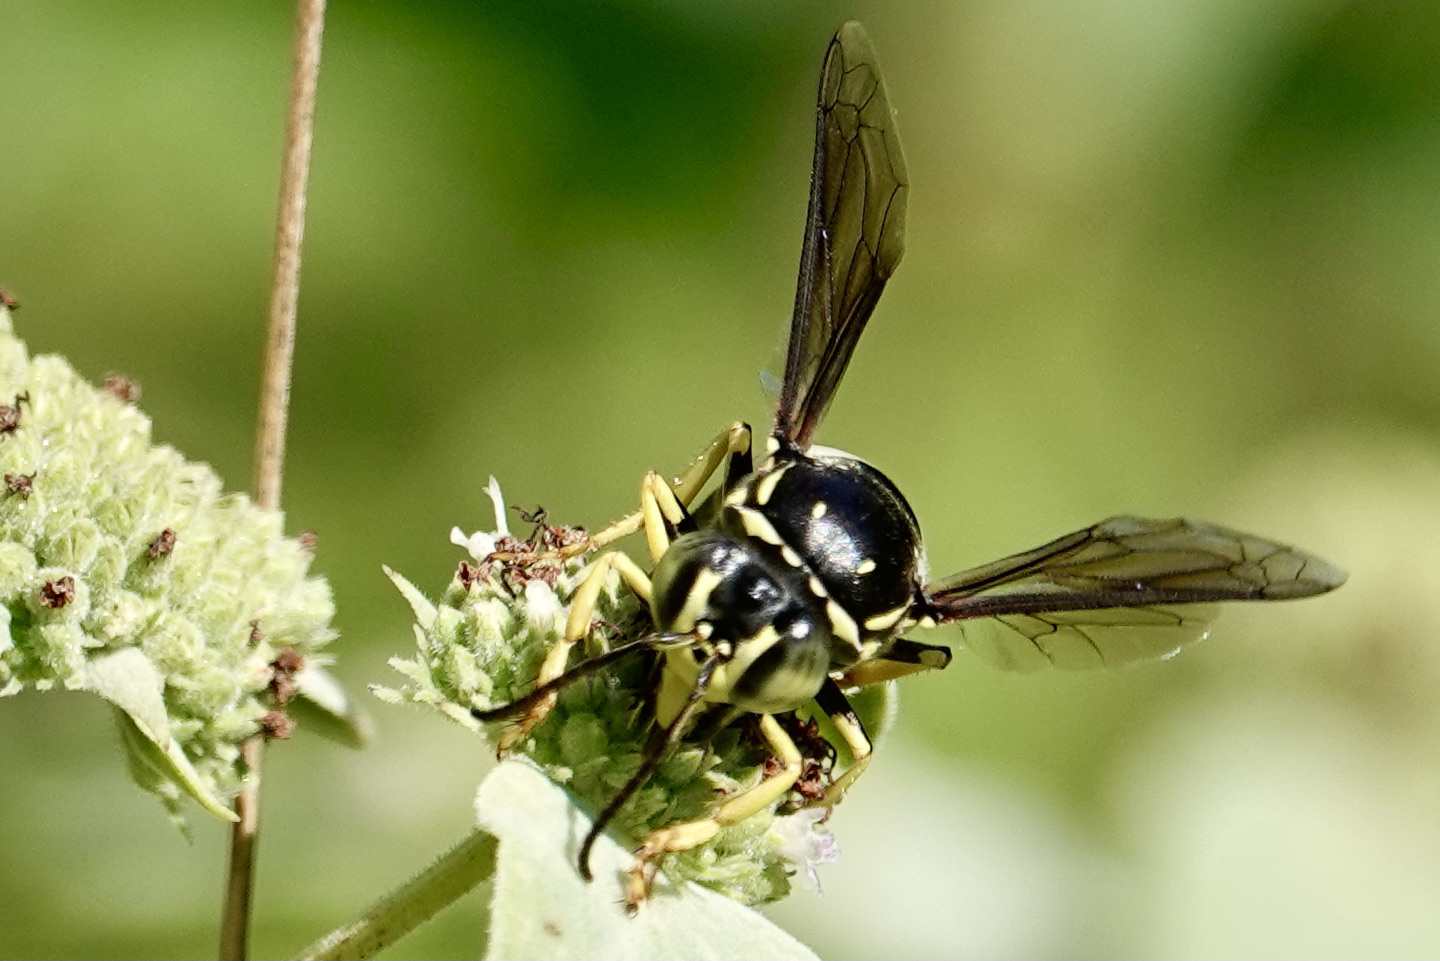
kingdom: Animalia
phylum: Arthropoda
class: Insecta
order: Hymenoptera
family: Crabronidae
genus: Bicyrtes
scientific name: Bicyrtes quadrifasciatus
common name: Four-banded stink bug hunter wasp
